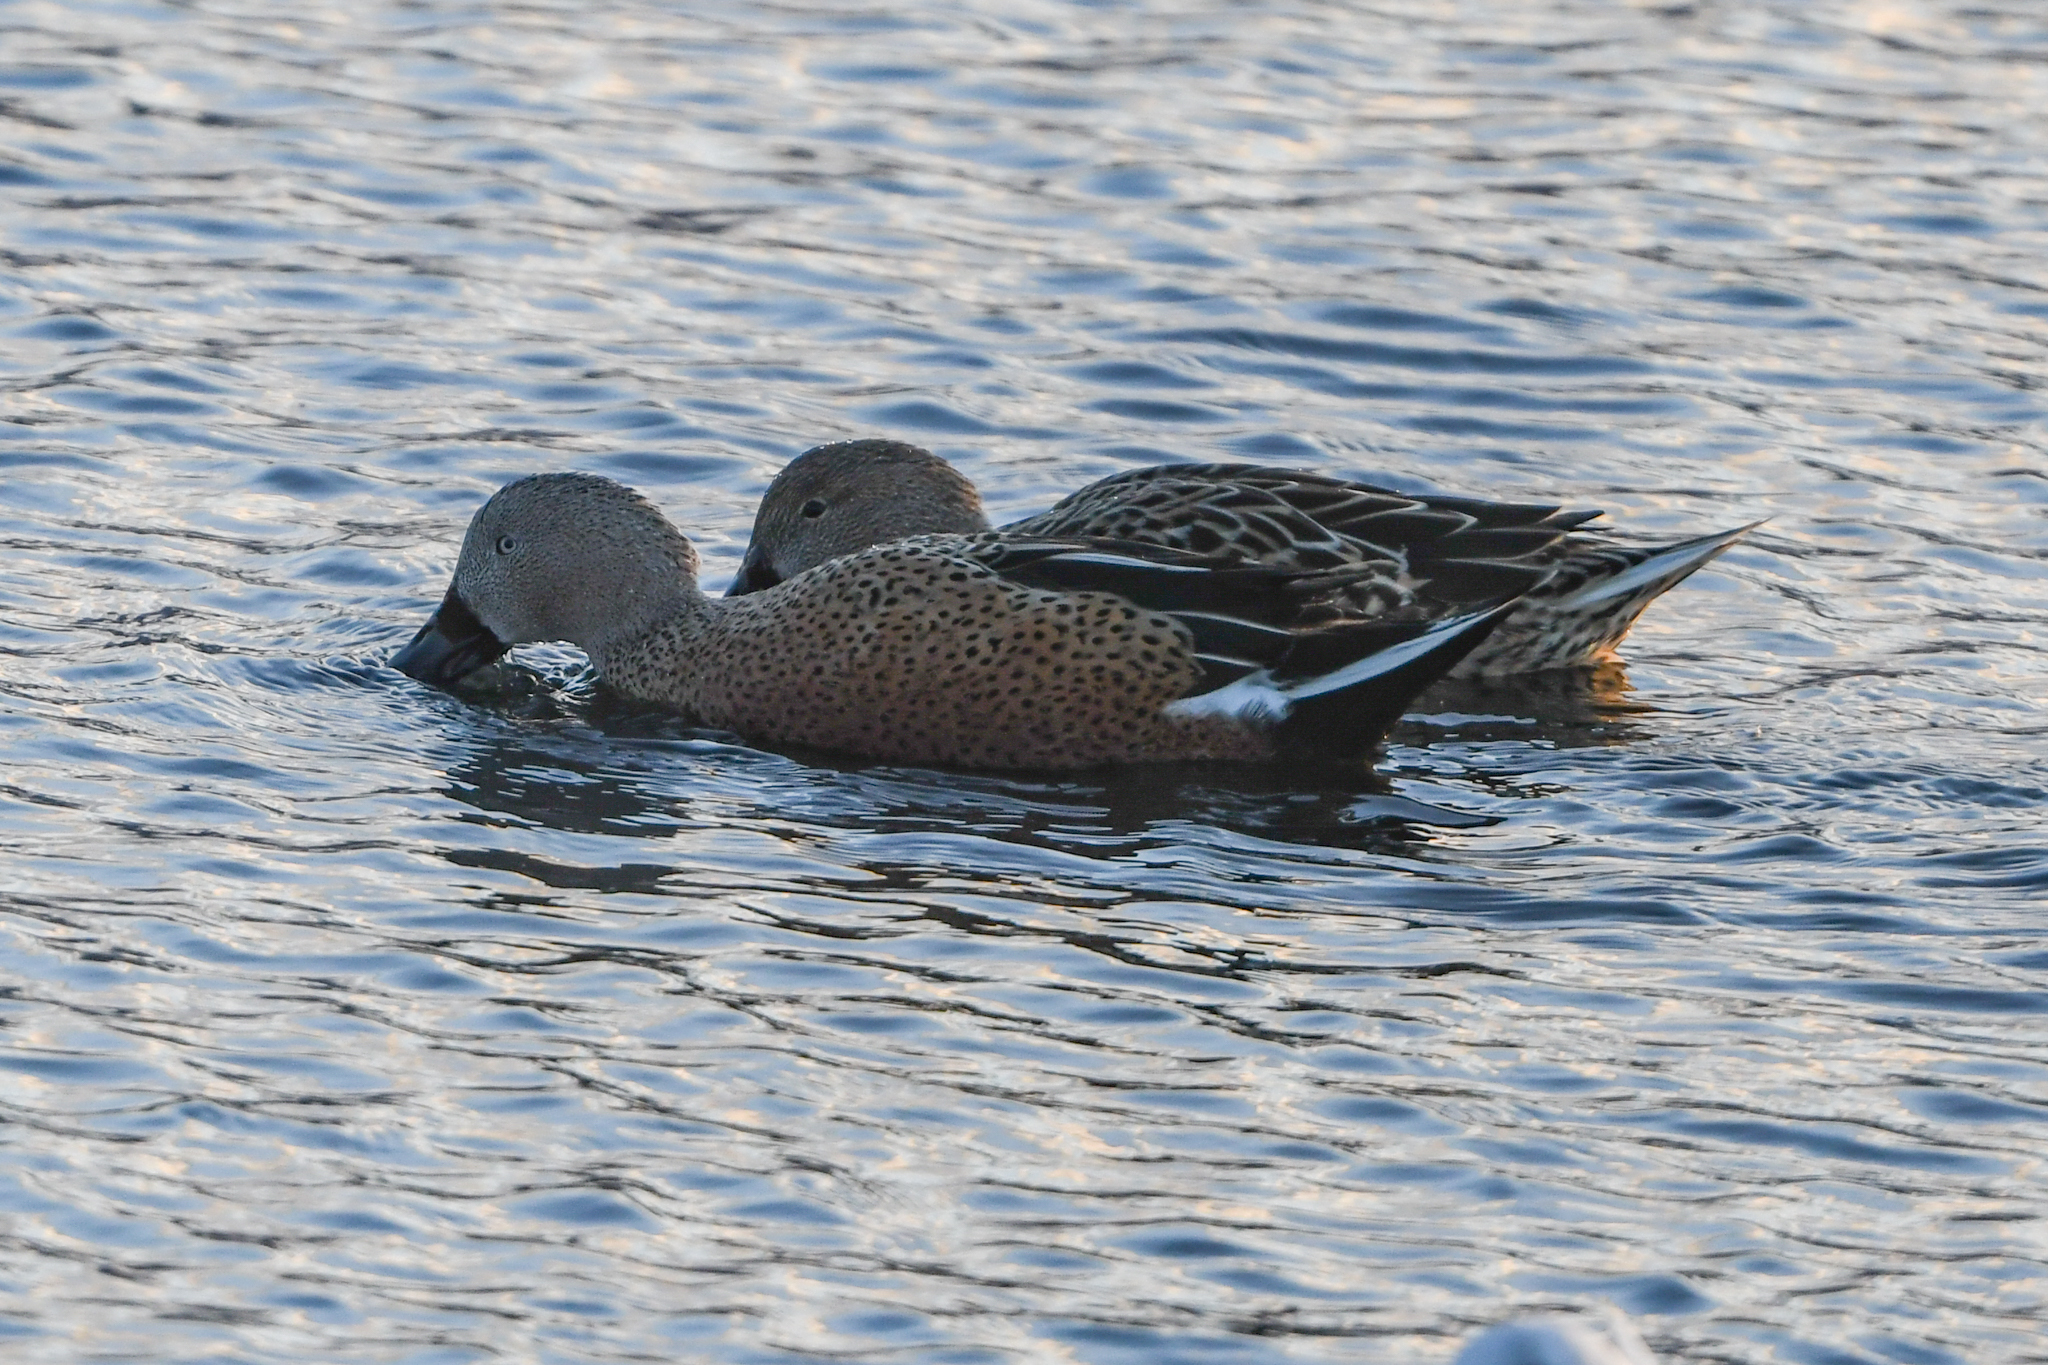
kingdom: Animalia
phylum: Chordata
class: Aves
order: Anseriformes
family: Anatidae
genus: Spatula
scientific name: Spatula platalea
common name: Red shoveler
